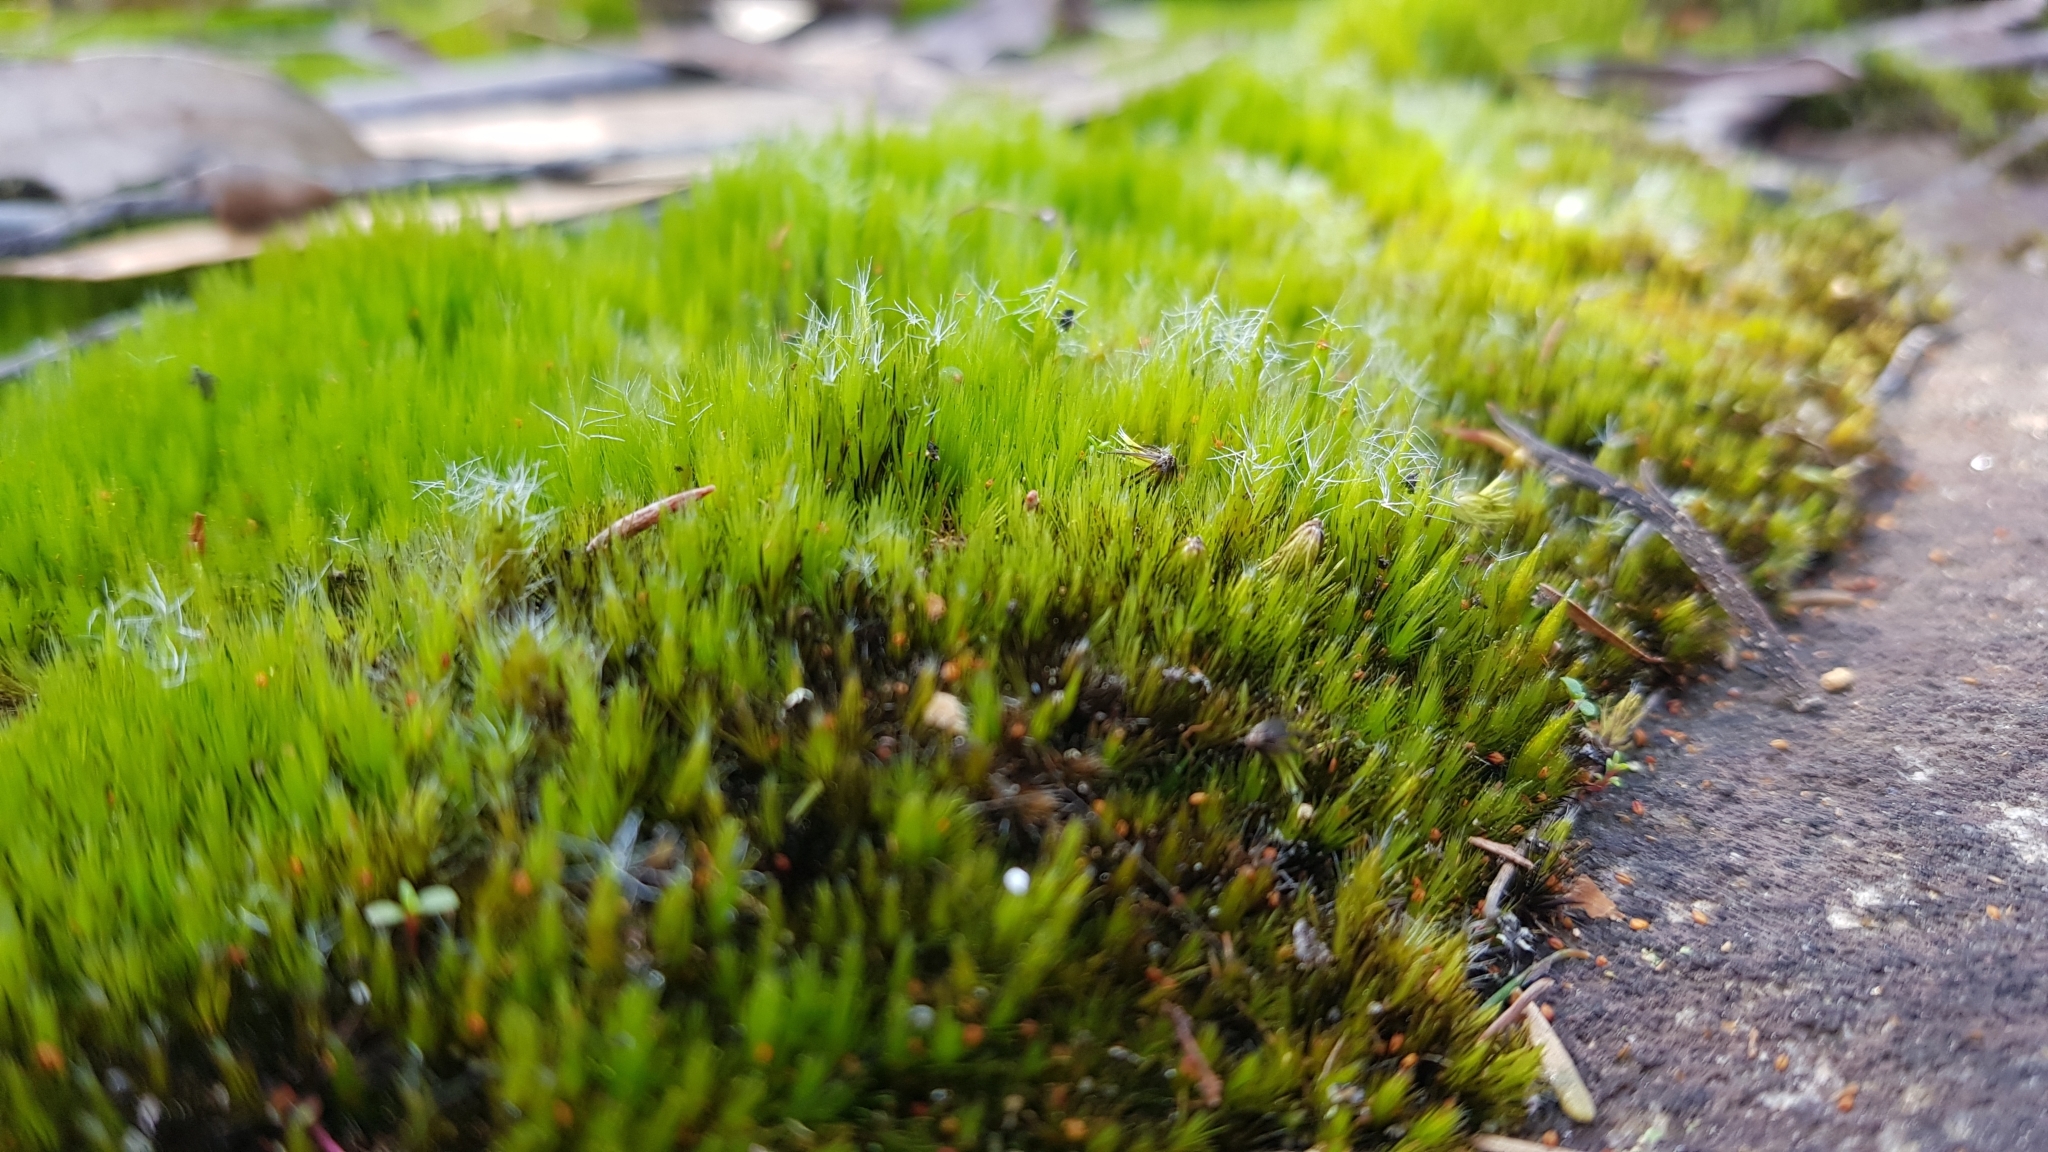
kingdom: Plantae
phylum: Bryophyta
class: Bryopsida
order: Dicranales
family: Leucobryaceae
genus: Campylopus
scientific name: Campylopus introflexus
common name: Heath star moss
